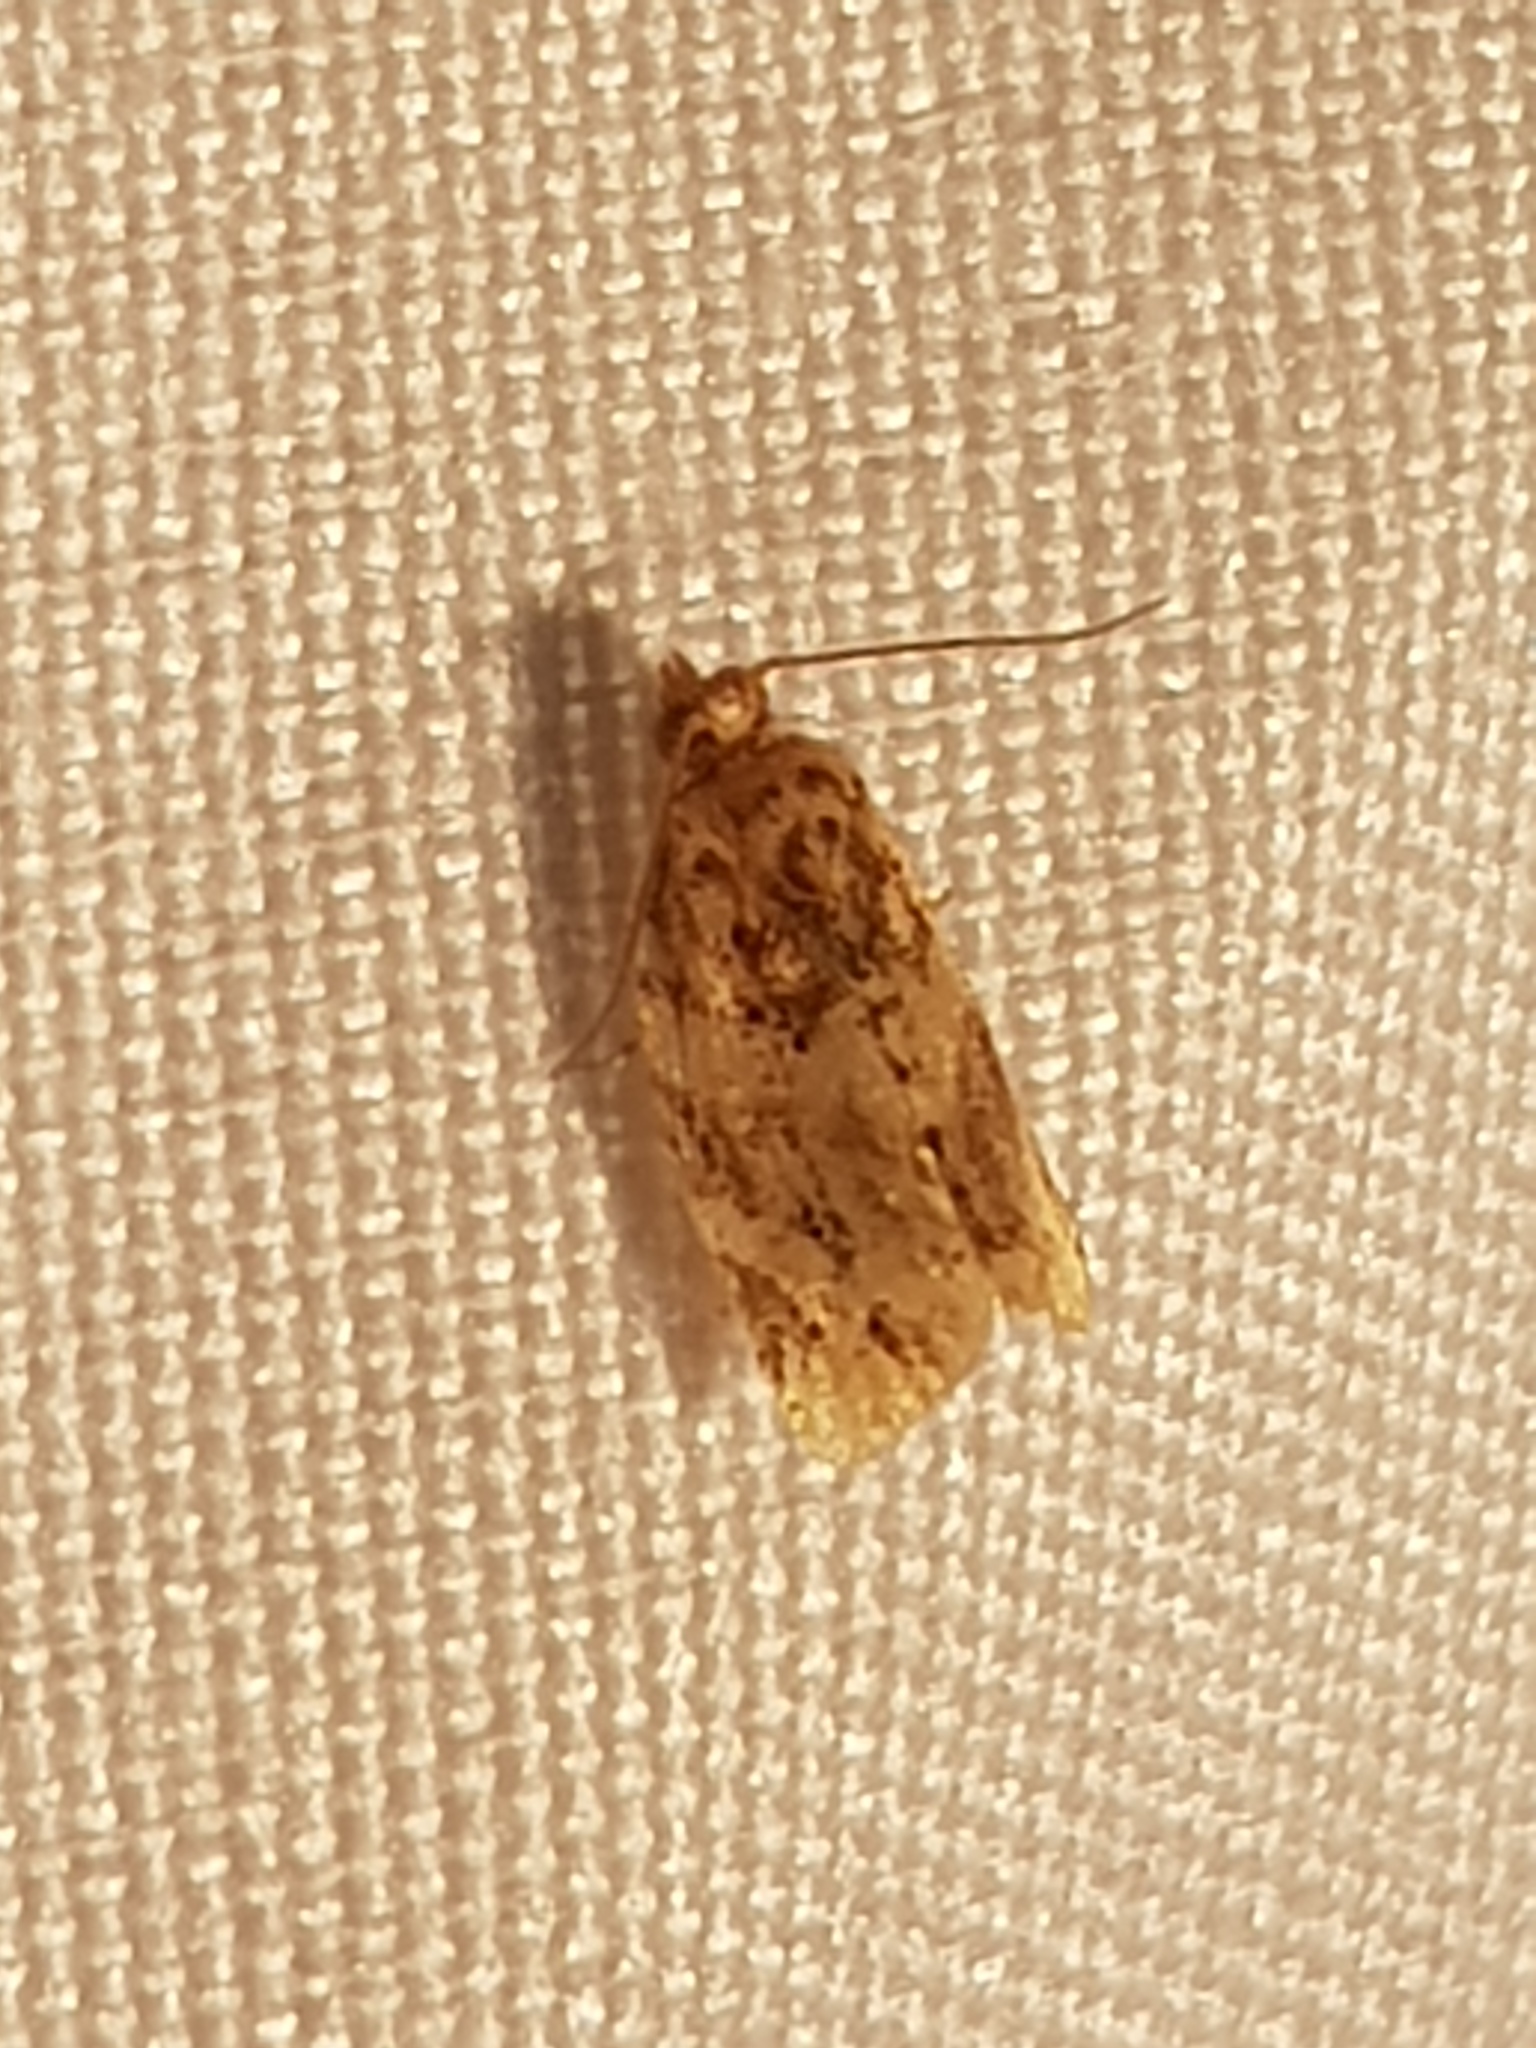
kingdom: Animalia
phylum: Arthropoda
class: Insecta
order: Lepidoptera
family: Tortricidae
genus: Argyrotaenia
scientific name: Argyrotaenia velutinana
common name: Red-banded leafroller moth
